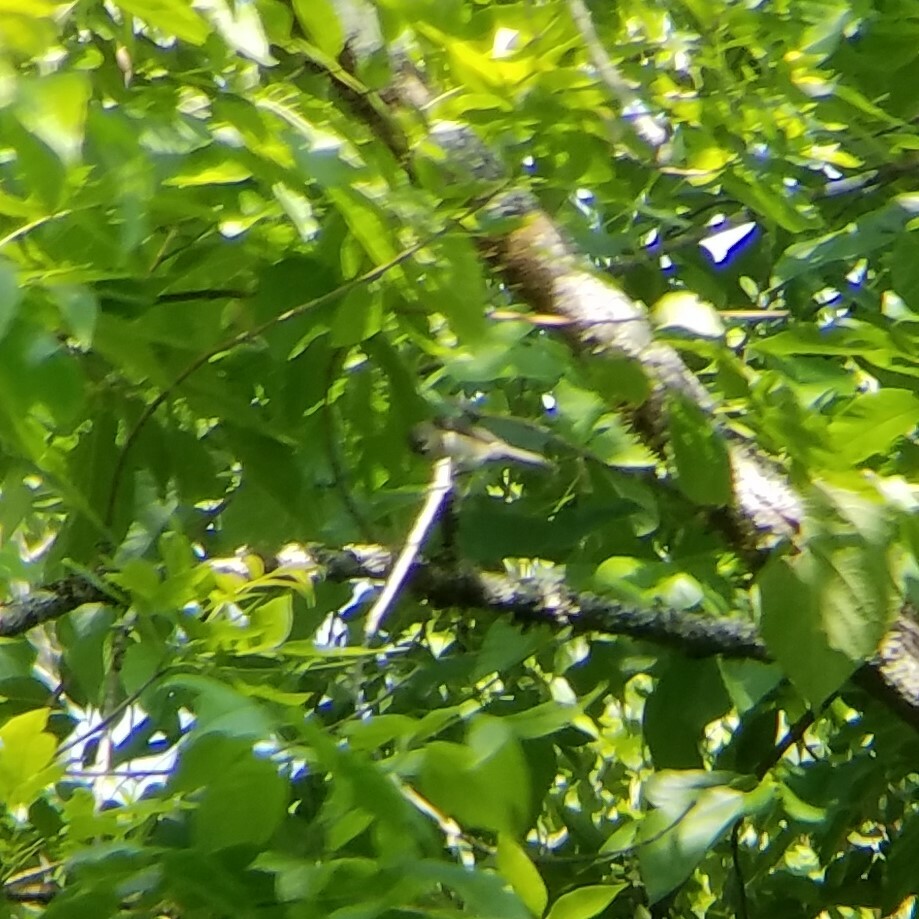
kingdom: Animalia
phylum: Chordata
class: Aves
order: Passeriformes
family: Paridae
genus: Baeolophus
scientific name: Baeolophus bicolor
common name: Tufted titmouse
